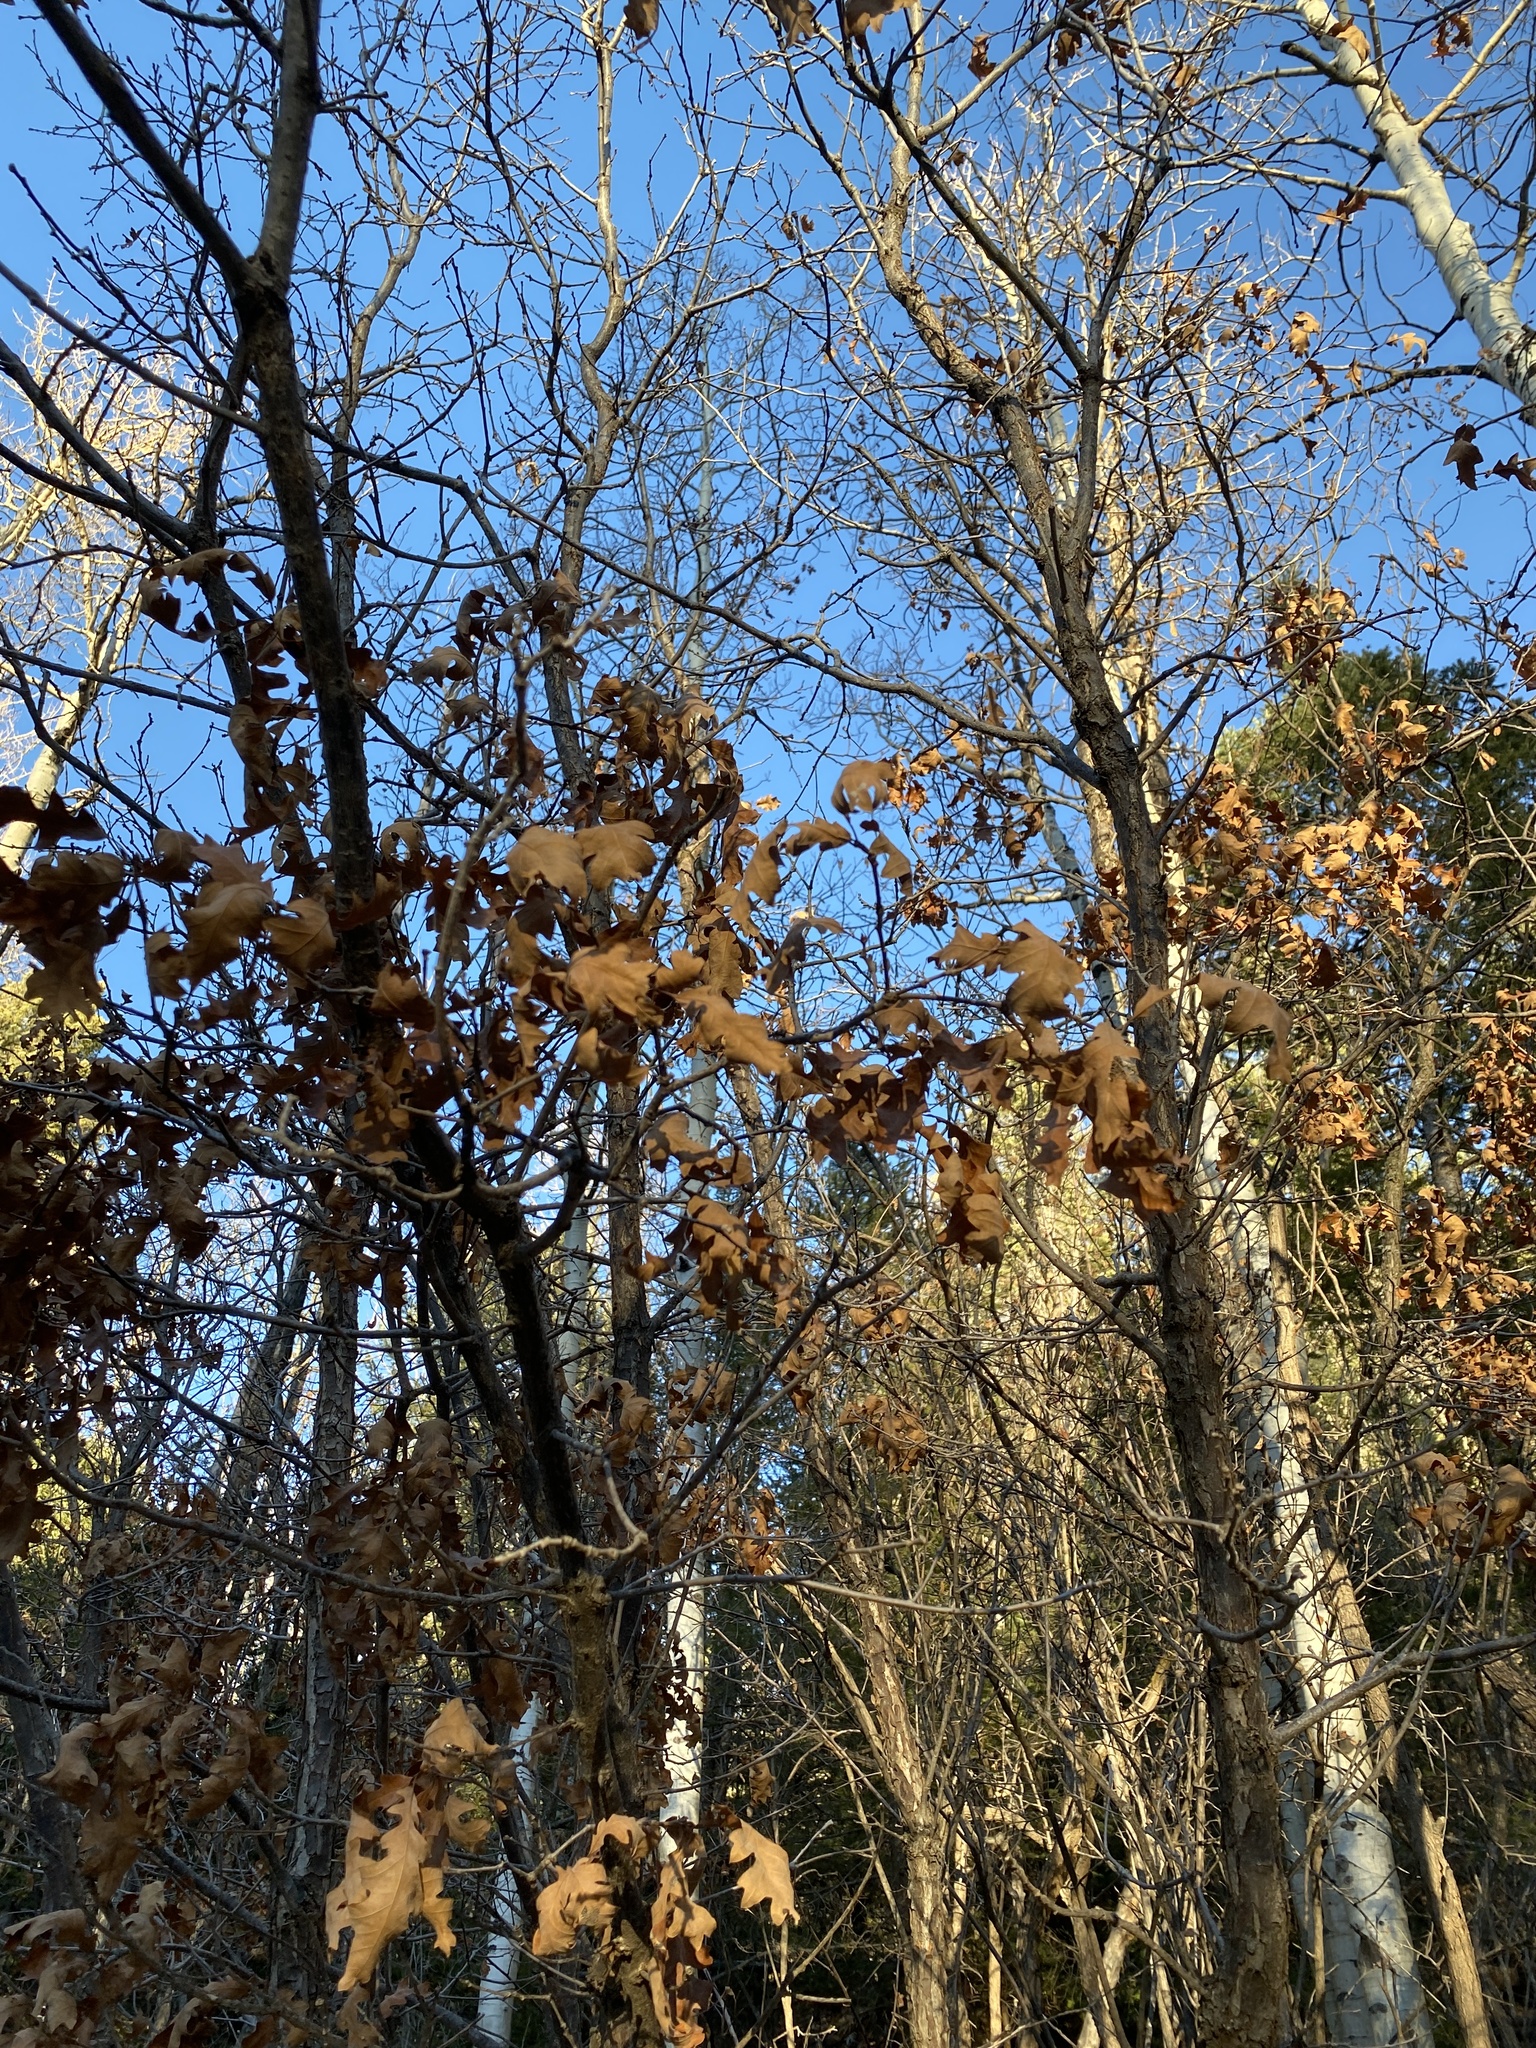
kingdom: Plantae
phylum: Tracheophyta
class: Magnoliopsida
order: Fagales
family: Fagaceae
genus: Quercus
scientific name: Quercus gambelii
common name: Gambel oak
